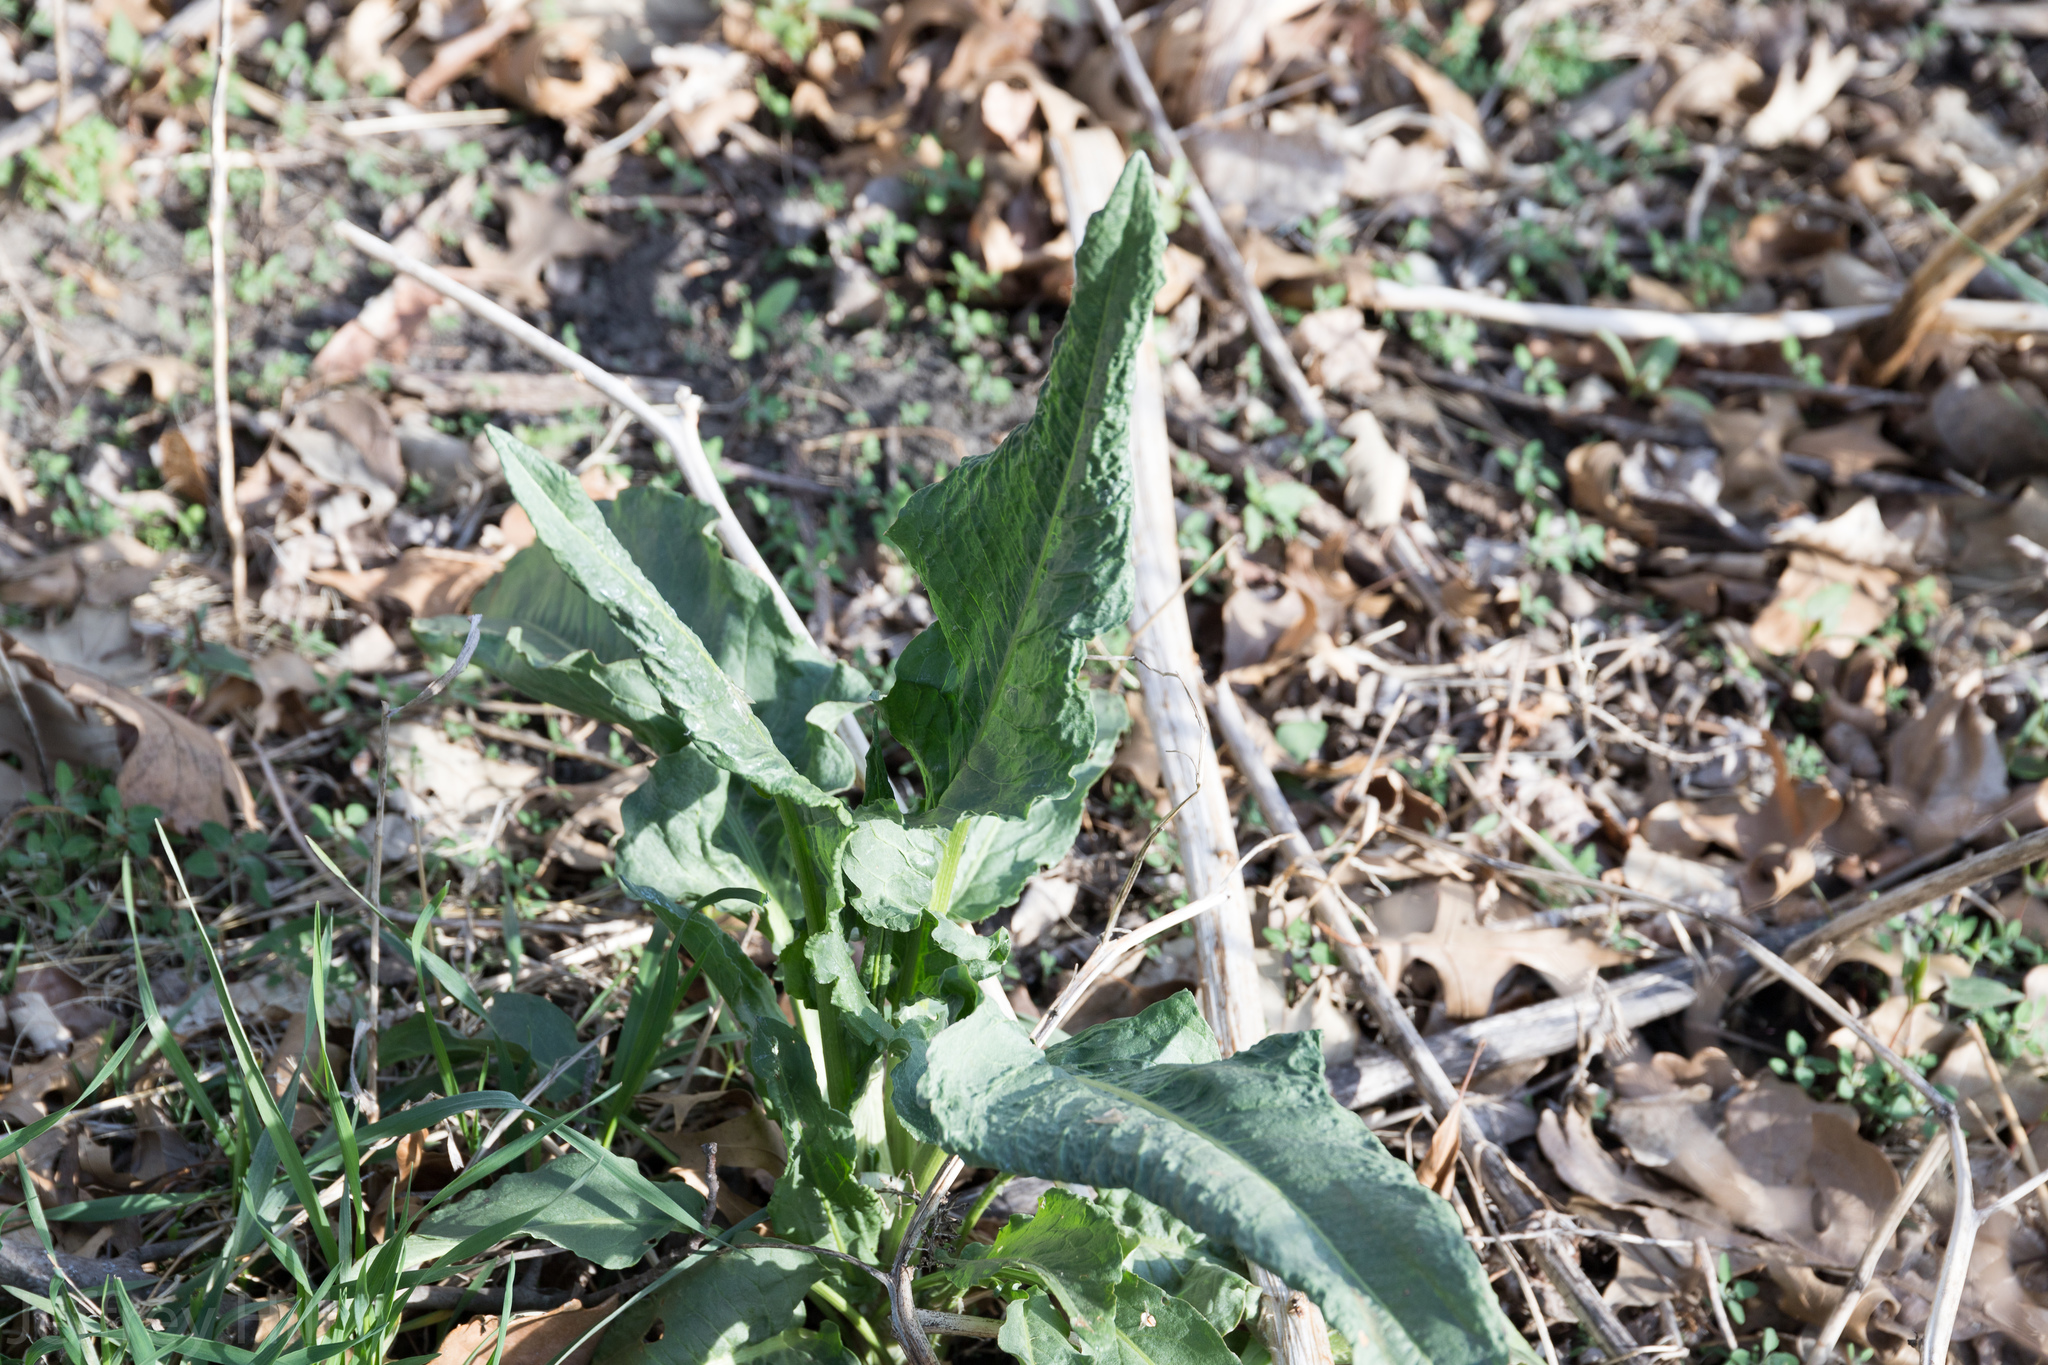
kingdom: Plantae
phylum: Tracheophyta
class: Magnoliopsida
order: Caryophyllales
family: Polygonaceae
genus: Rumex
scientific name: Rumex crispus
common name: Curled dock
